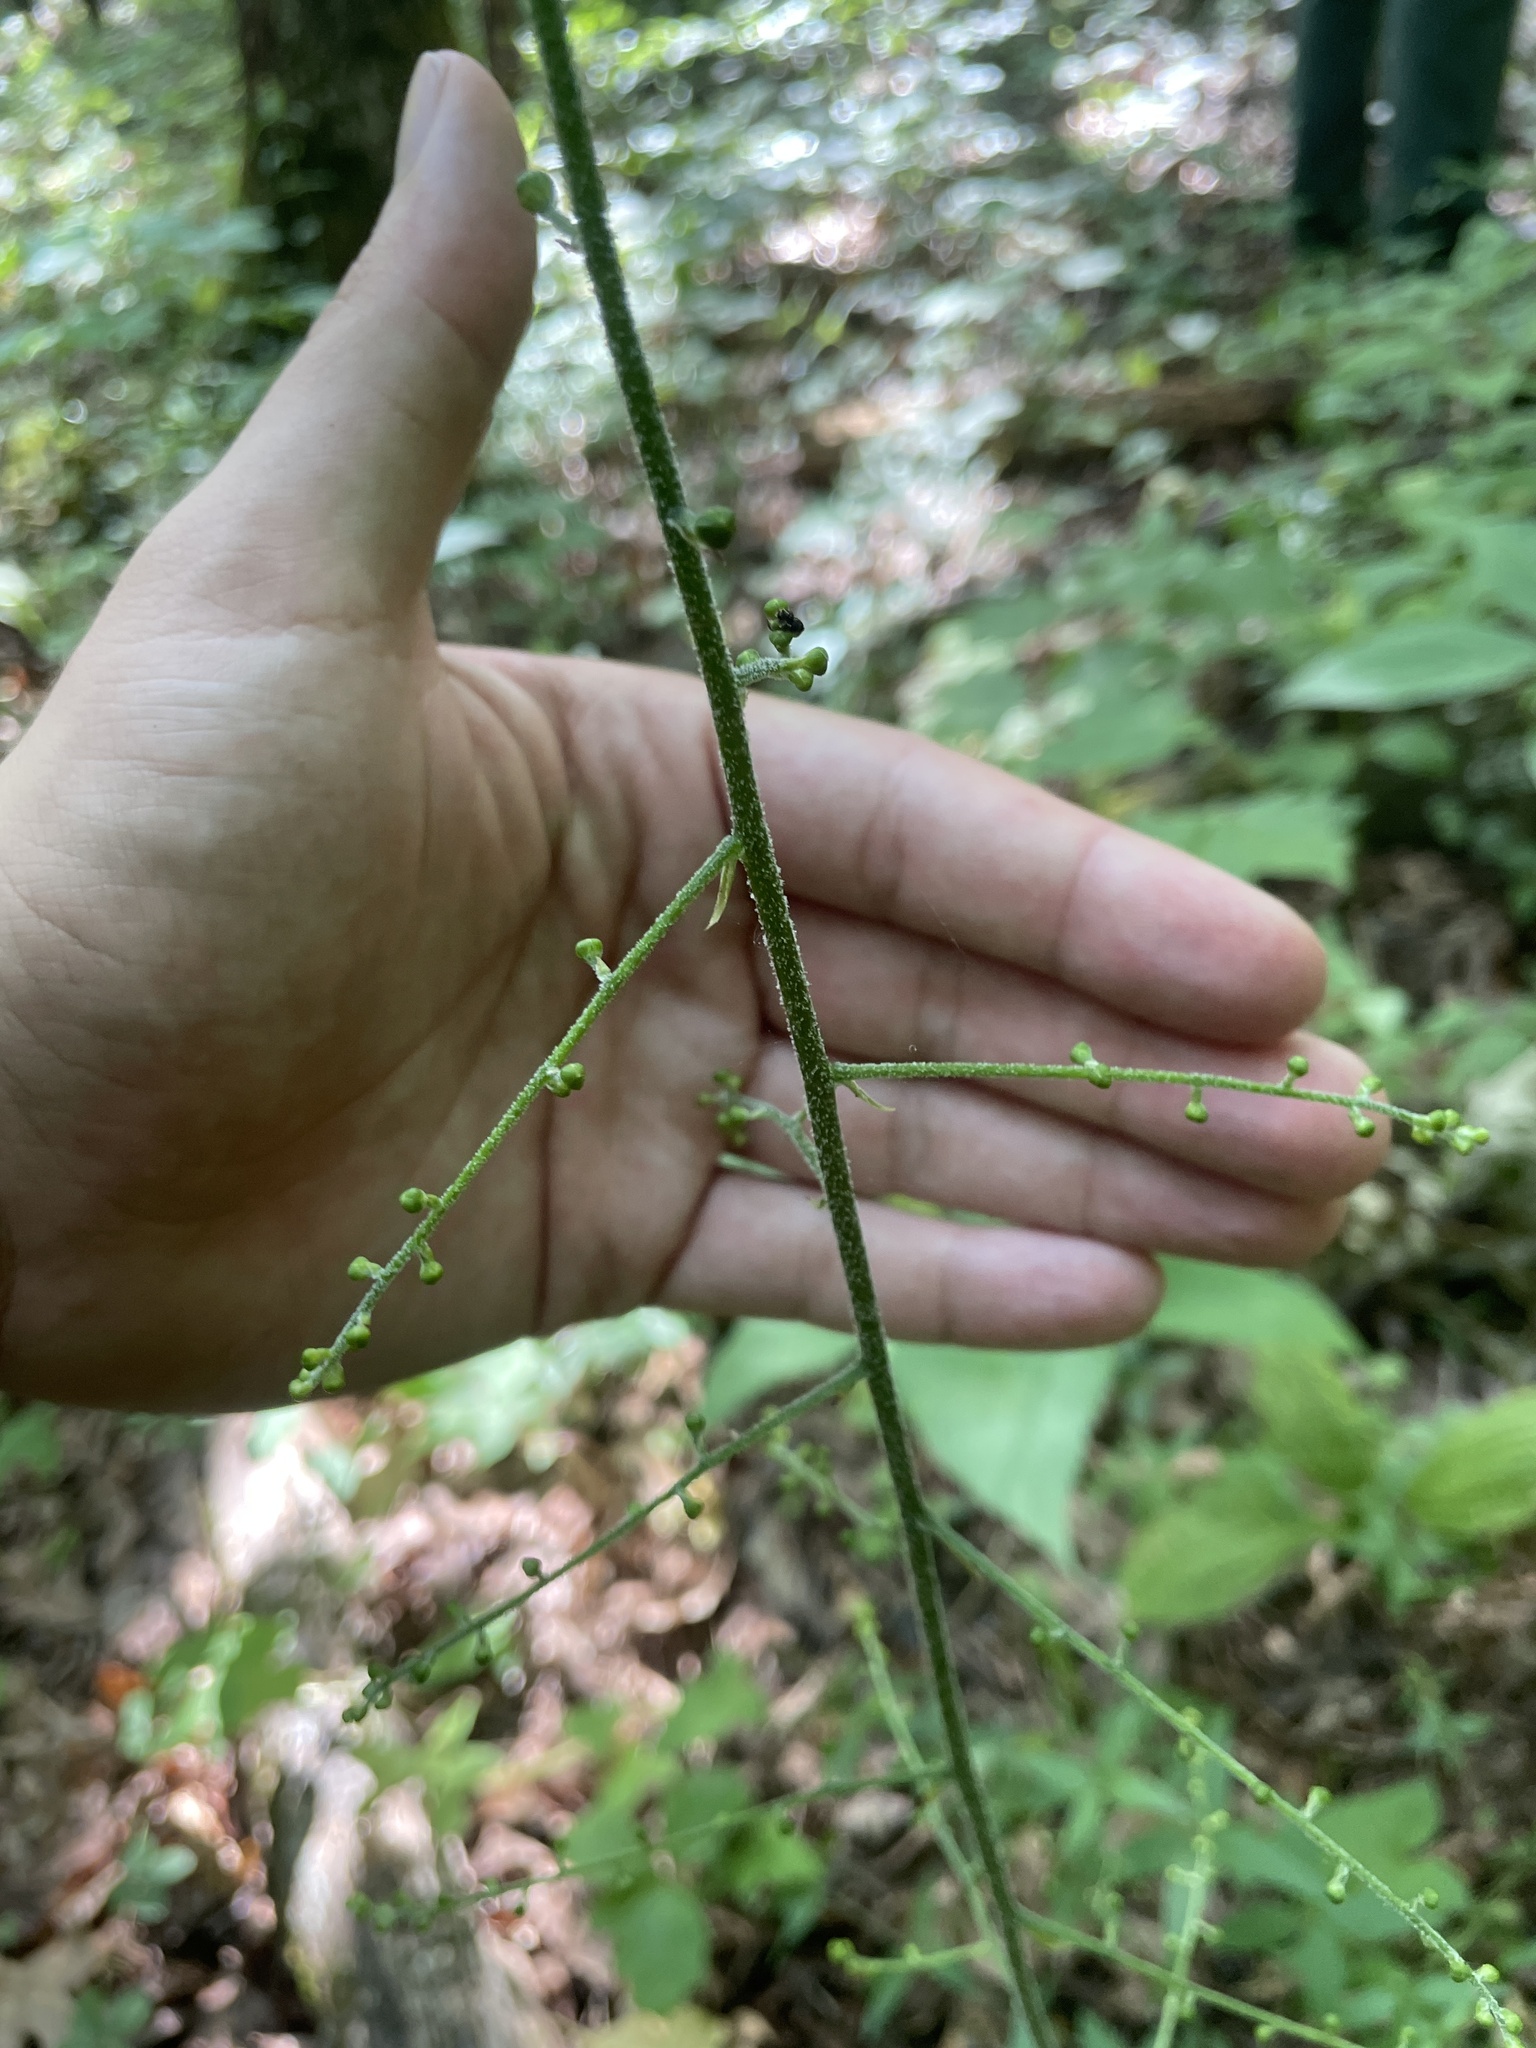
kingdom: Plantae
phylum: Tracheophyta
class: Liliopsida
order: Liliales
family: Melanthiaceae
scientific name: Melanthiaceae
